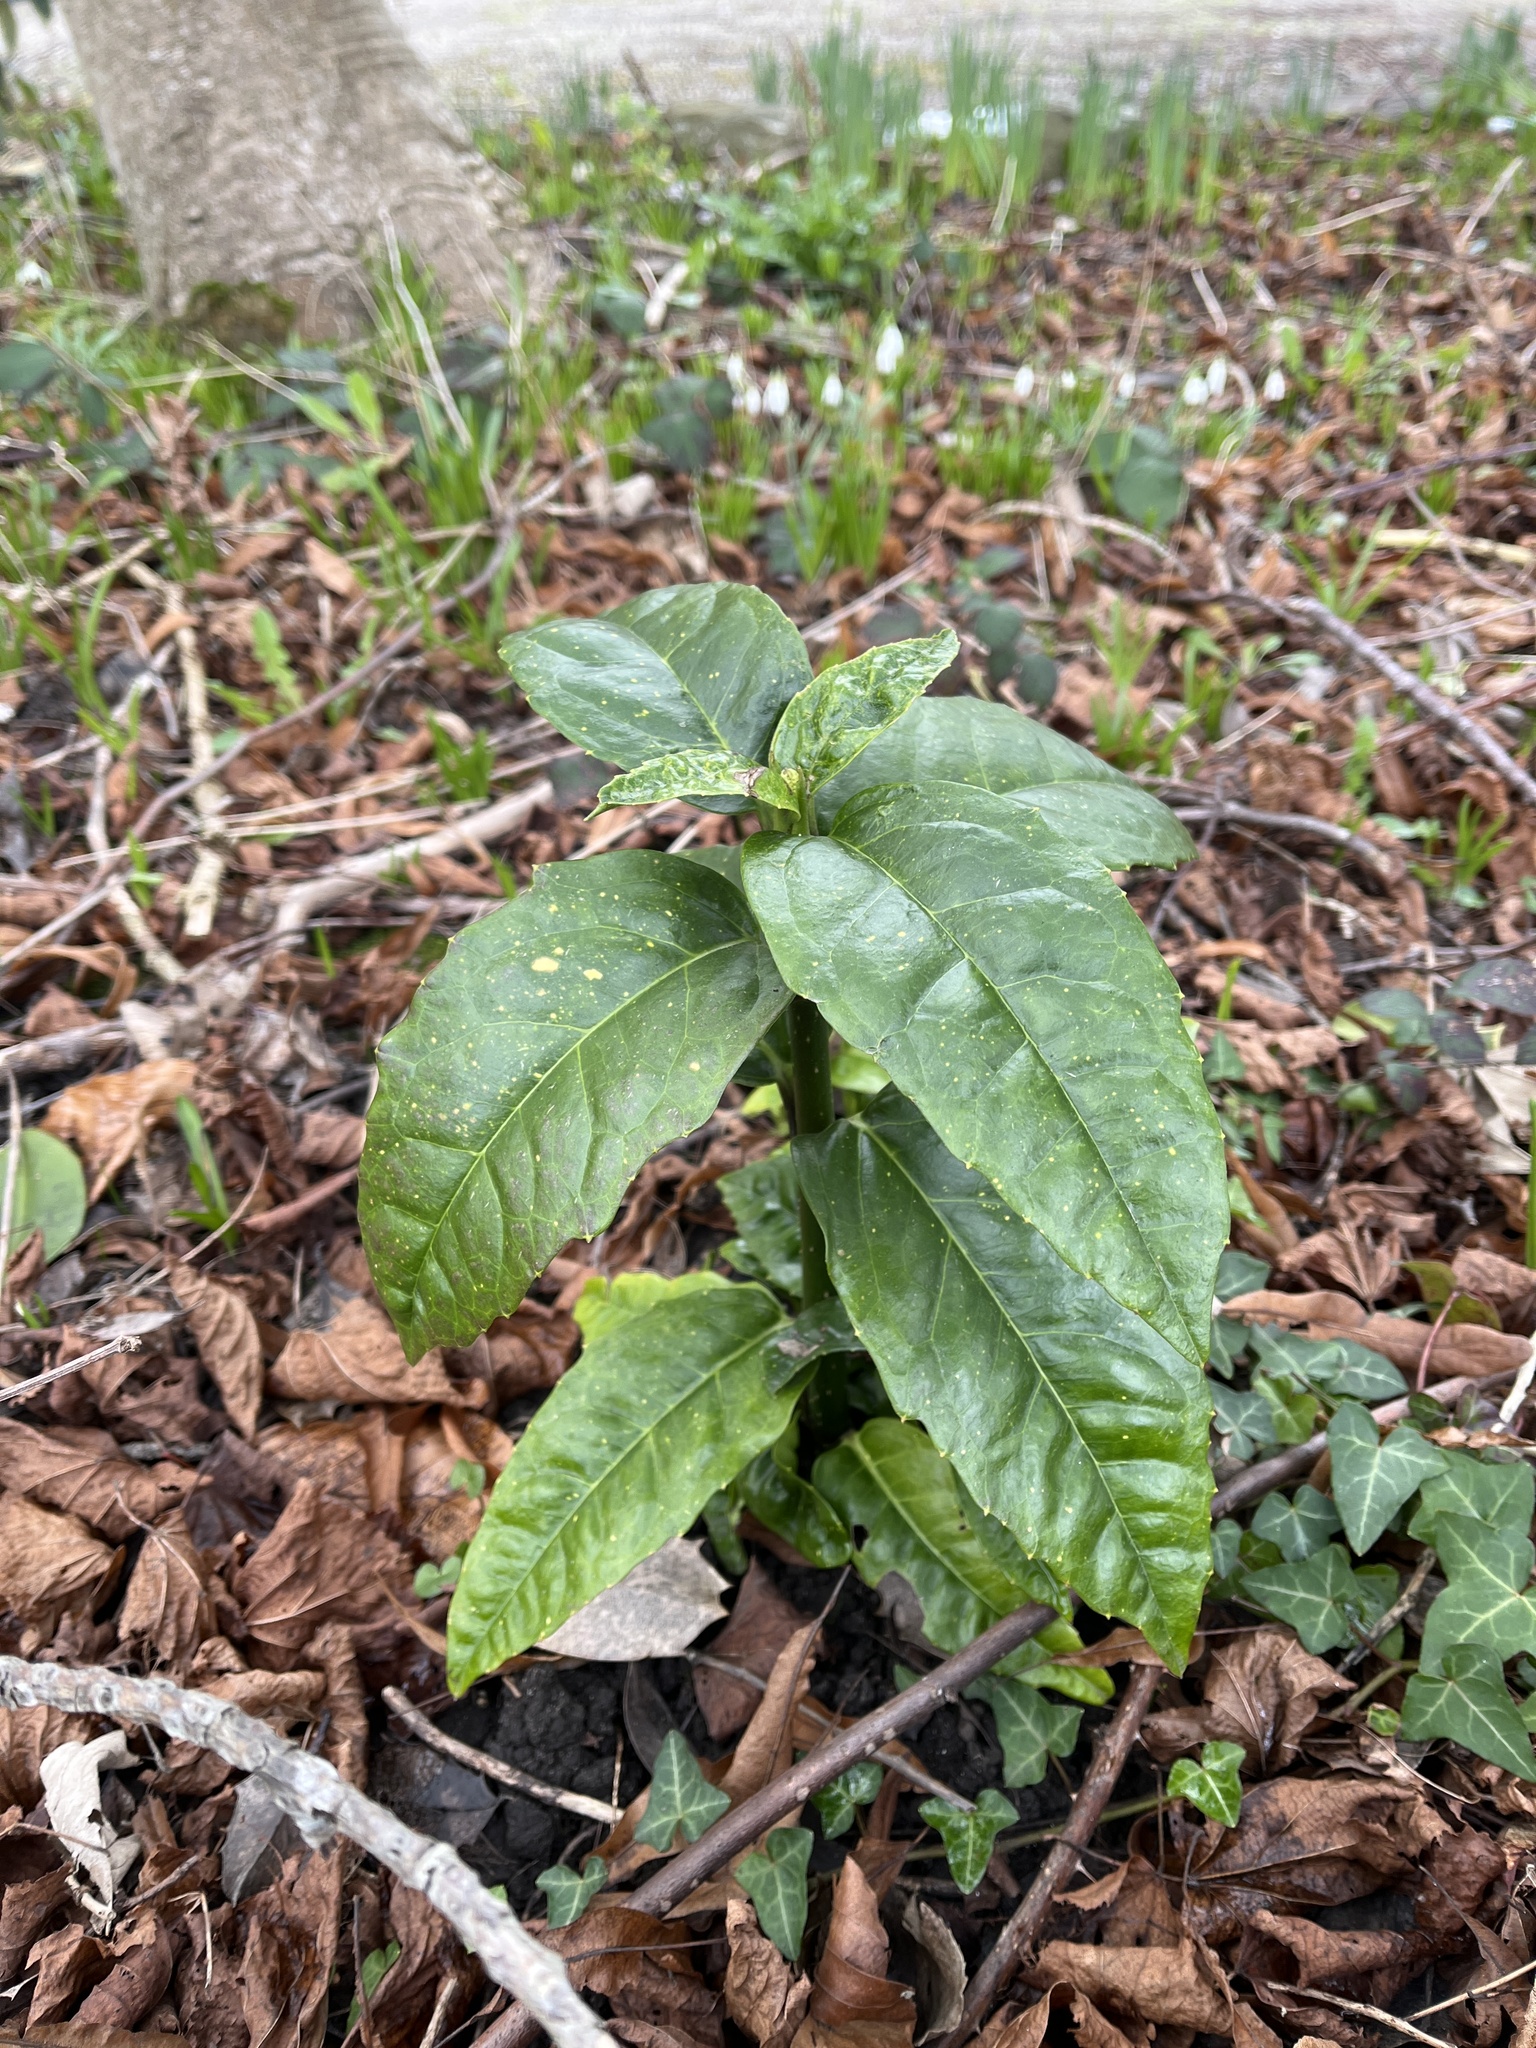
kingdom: Plantae
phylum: Tracheophyta
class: Magnoliopsida
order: Garryales
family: Garryaceae
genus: Aucuba
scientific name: Aucuba japonica
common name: Spotted-laurel
